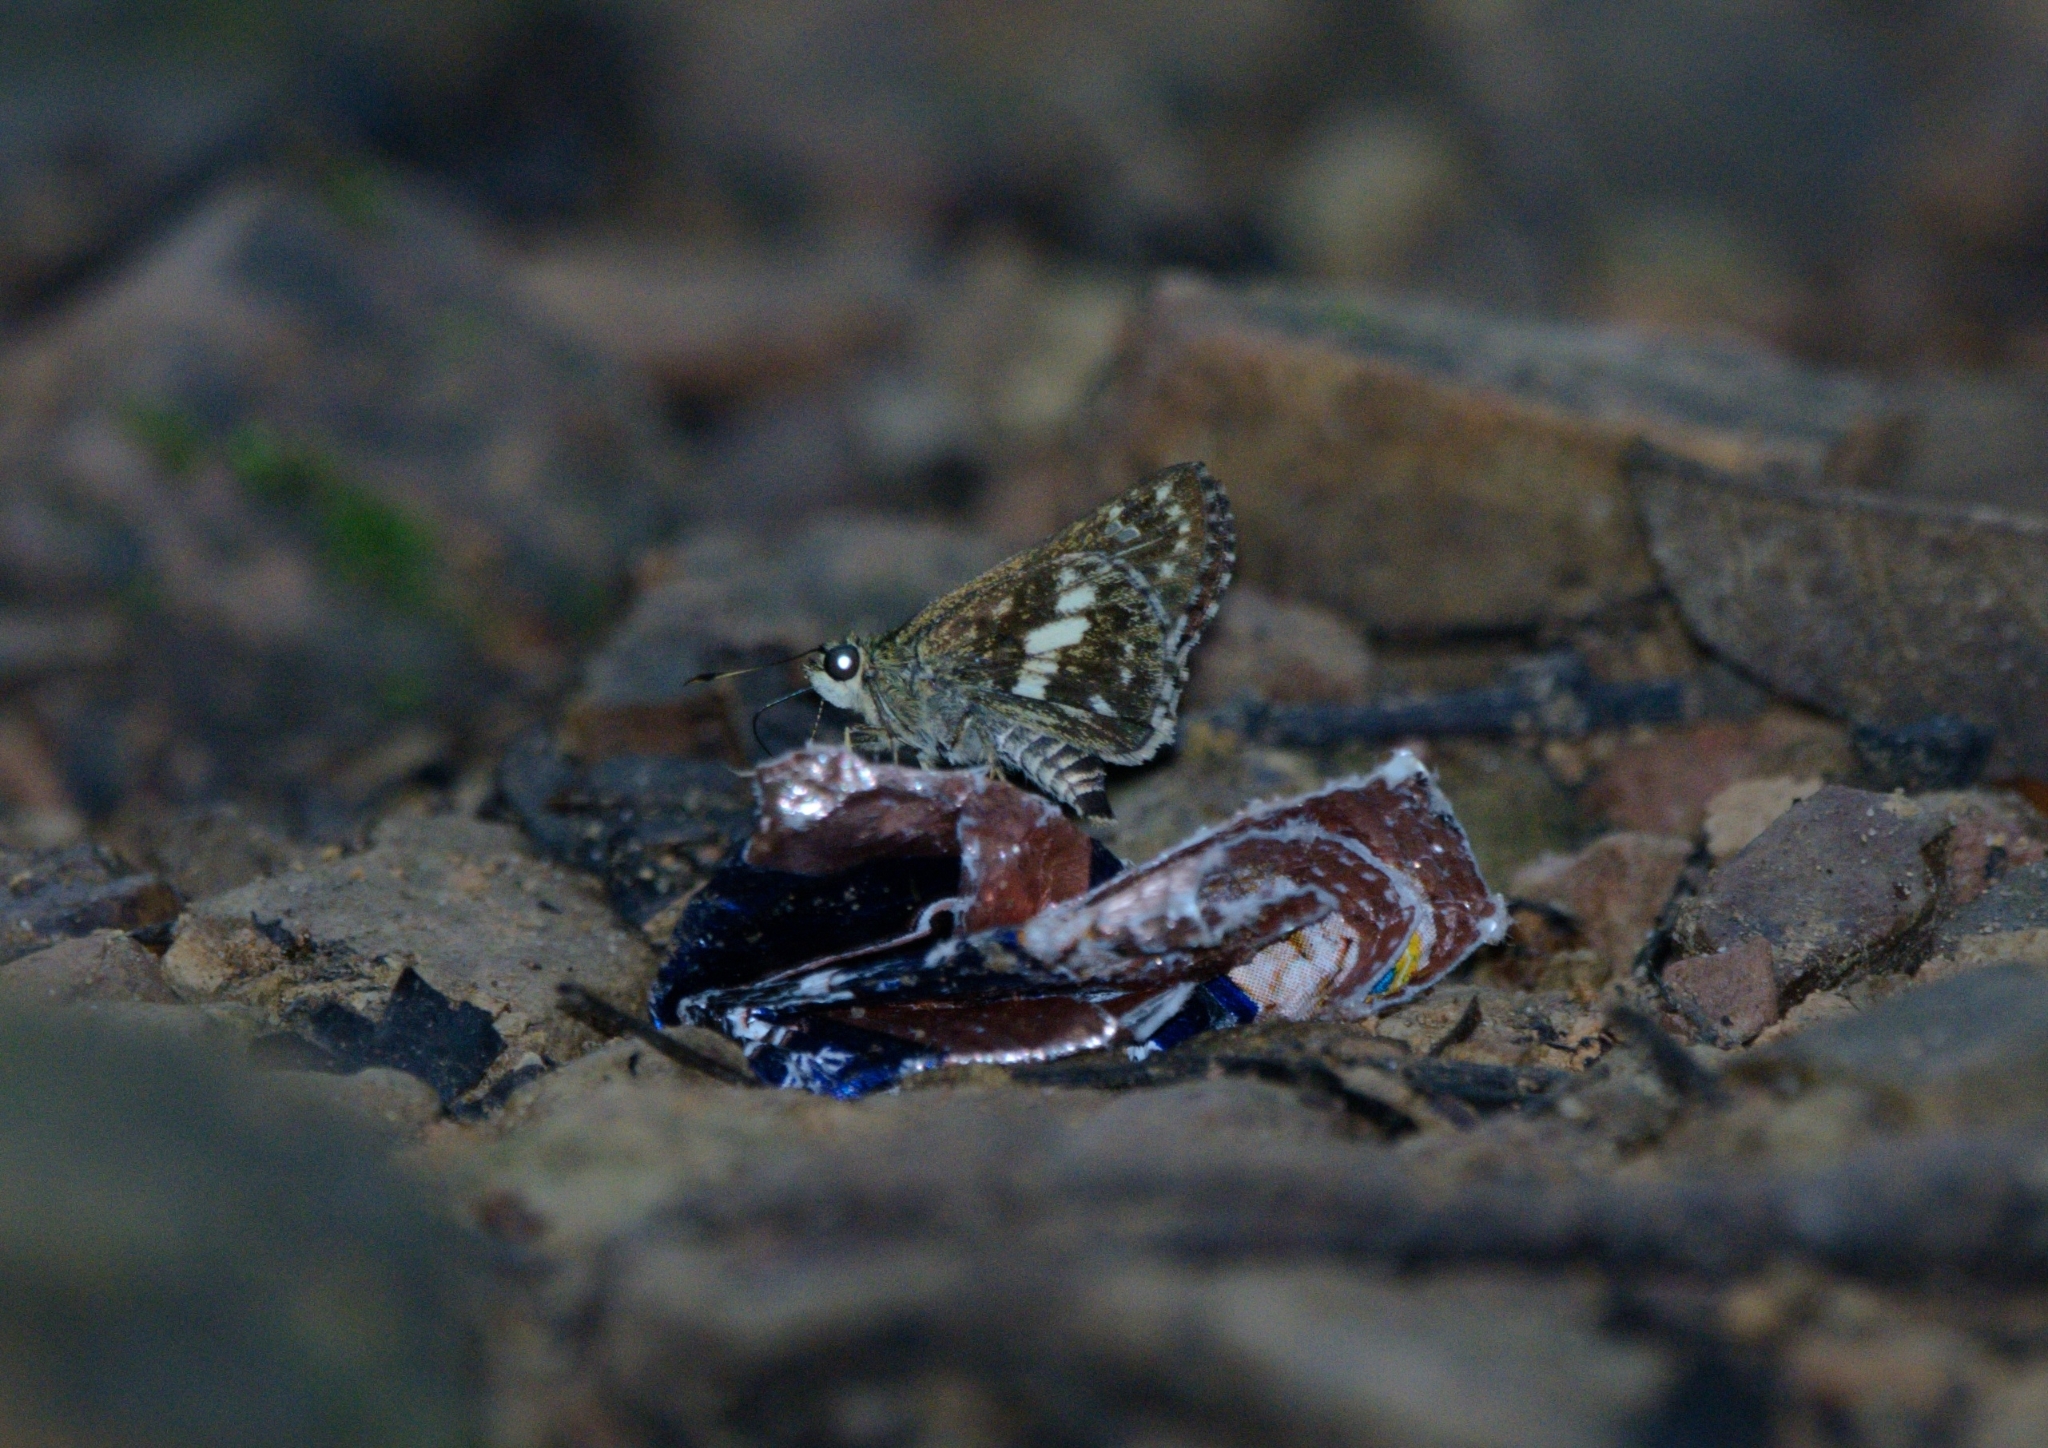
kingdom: Animalia
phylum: Arthropoda
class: Insecta
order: Lepidoptera
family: Hesperiidae
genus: Halpe
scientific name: Halpe porus
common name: Moore's ace
